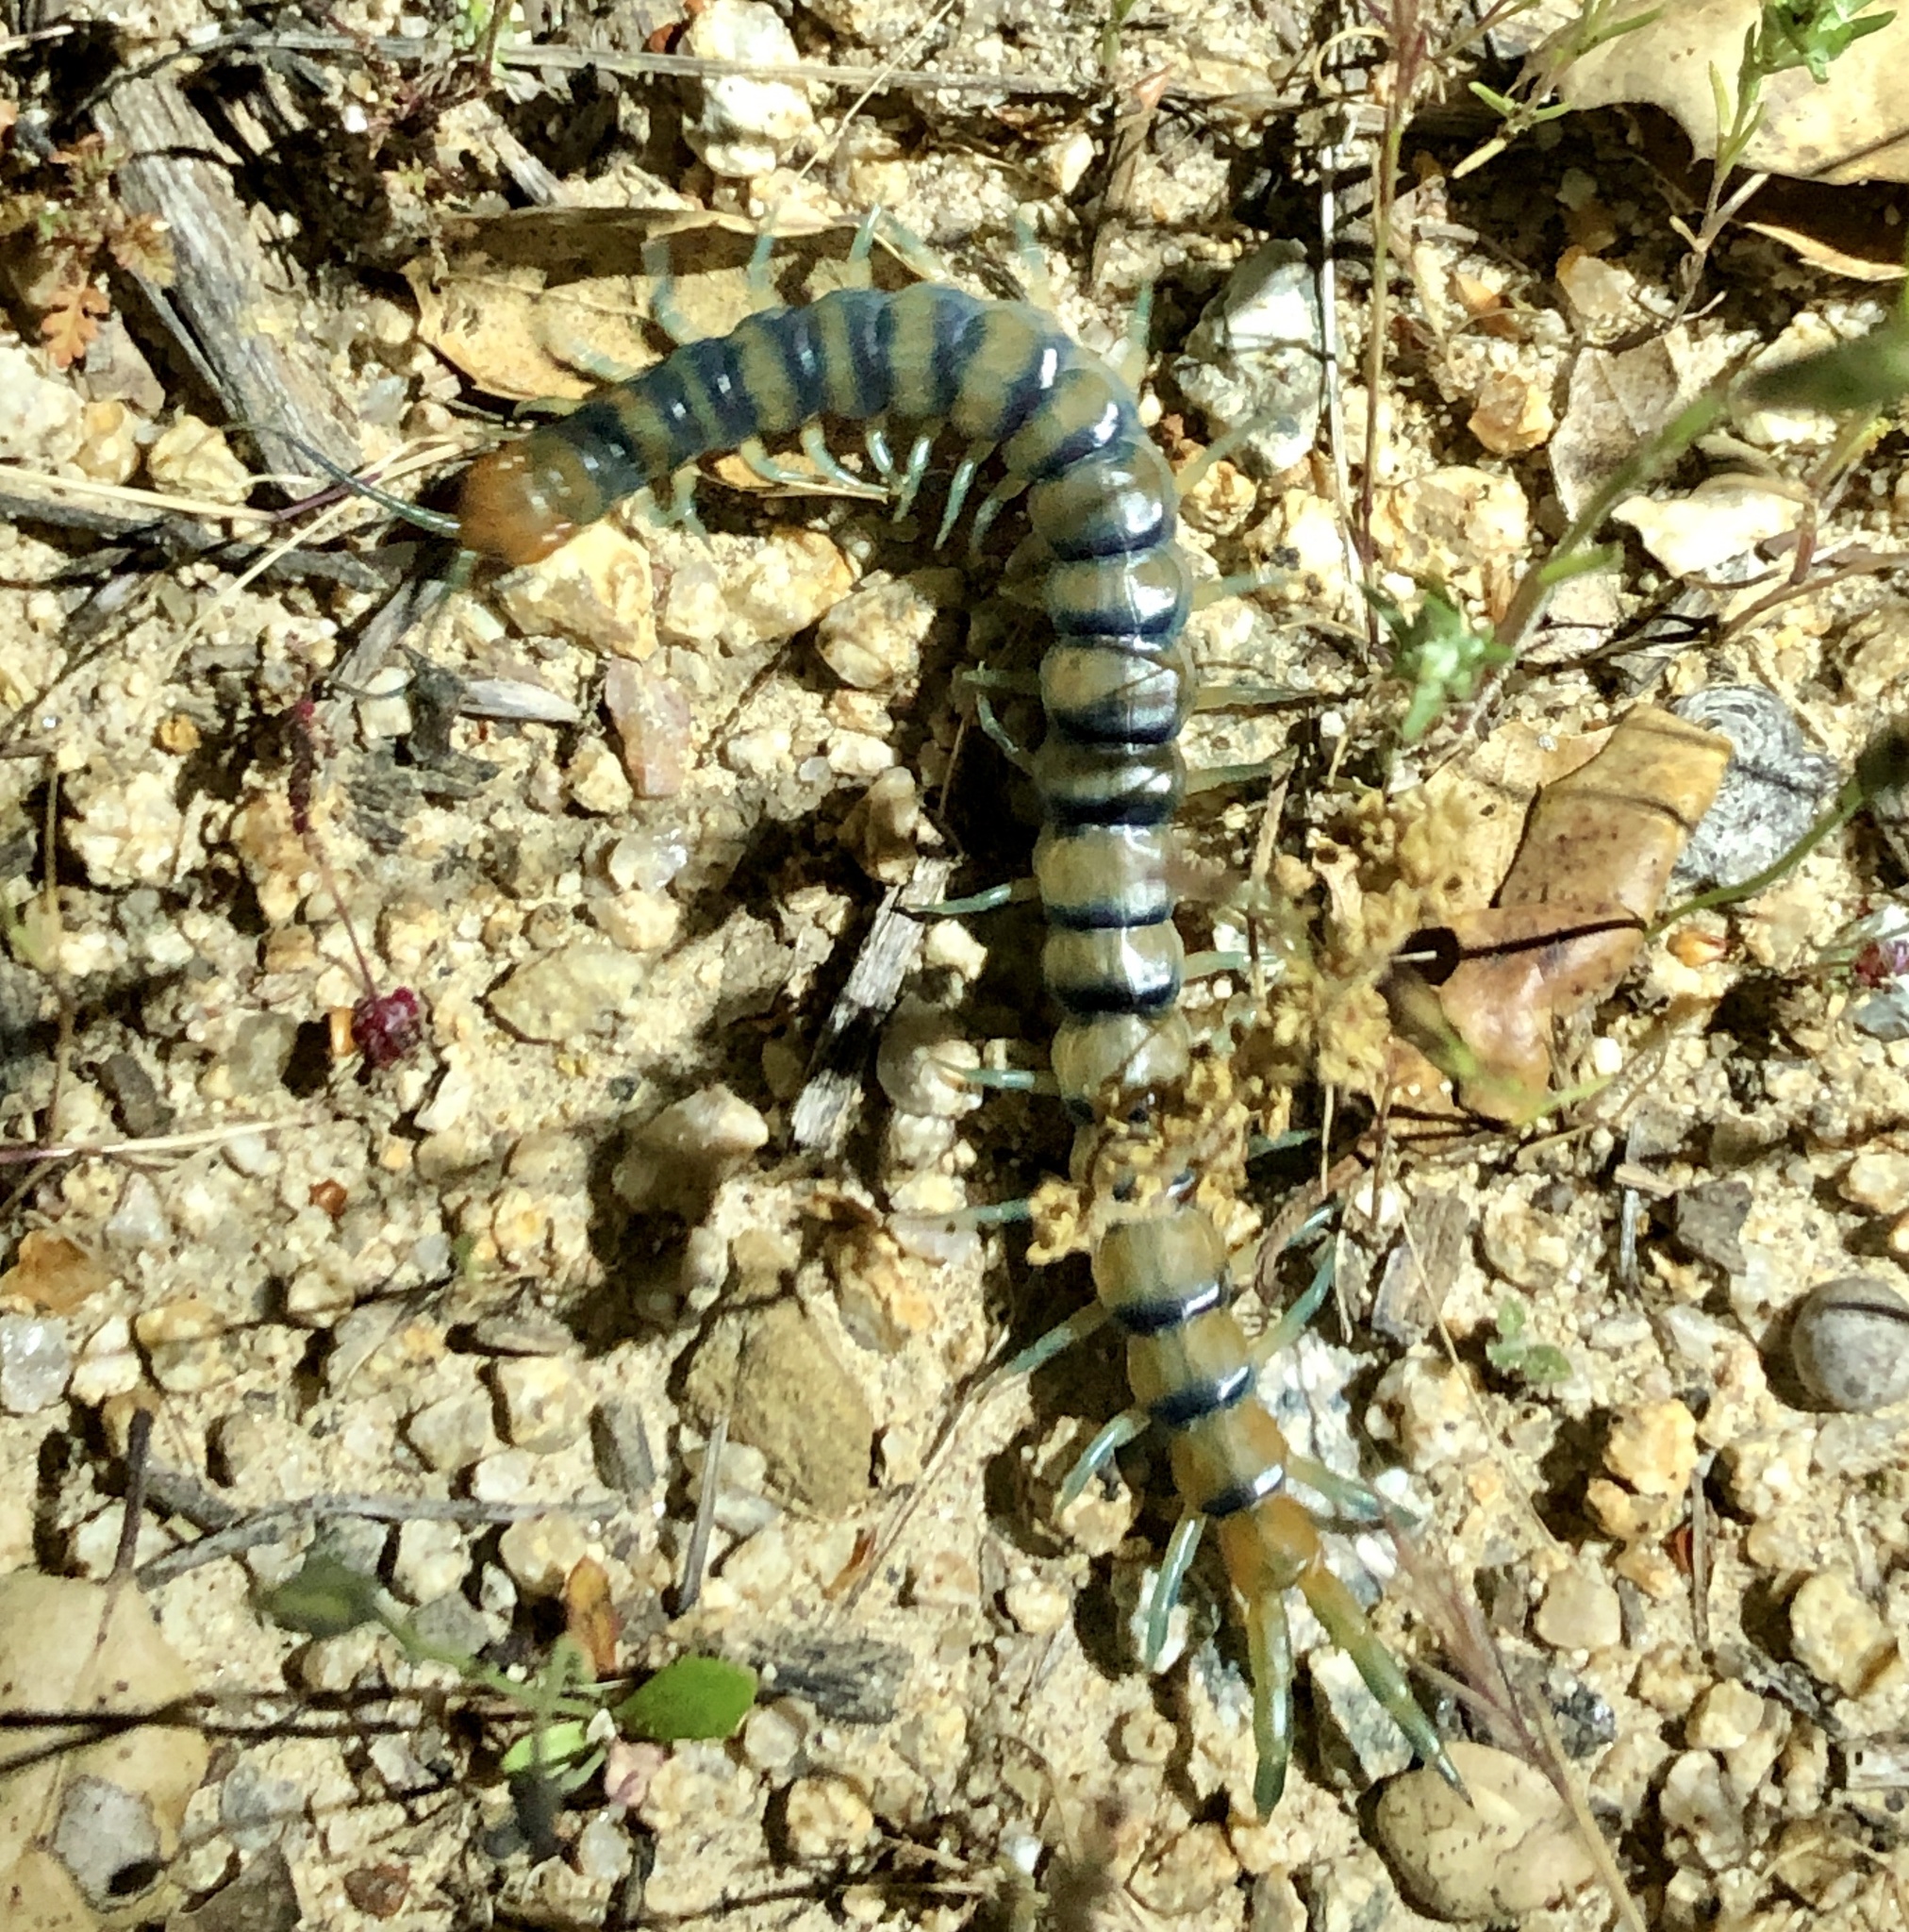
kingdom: Animalia
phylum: Arthropoda
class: Chilopoda
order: Scolopendromorpha
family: Scolopendridae
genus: Scolopendra
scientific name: Scolopendra polymorpha
